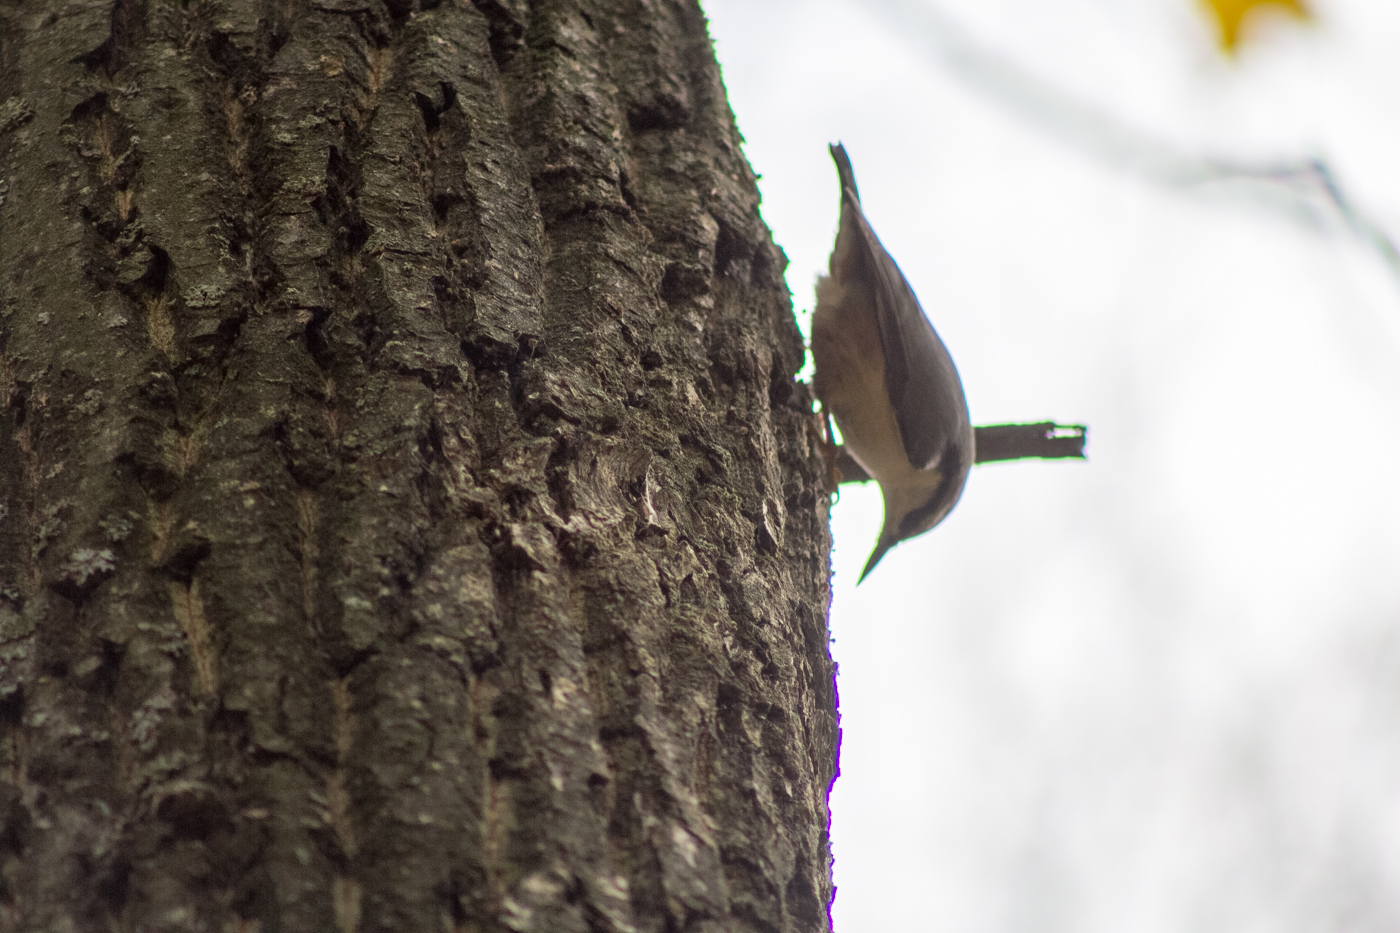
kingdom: Animalia
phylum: Chordata
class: Aves
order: Passeriformes
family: Sittidae
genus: Sitta
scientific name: Sitta europaea
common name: Eurasian nuthatch
